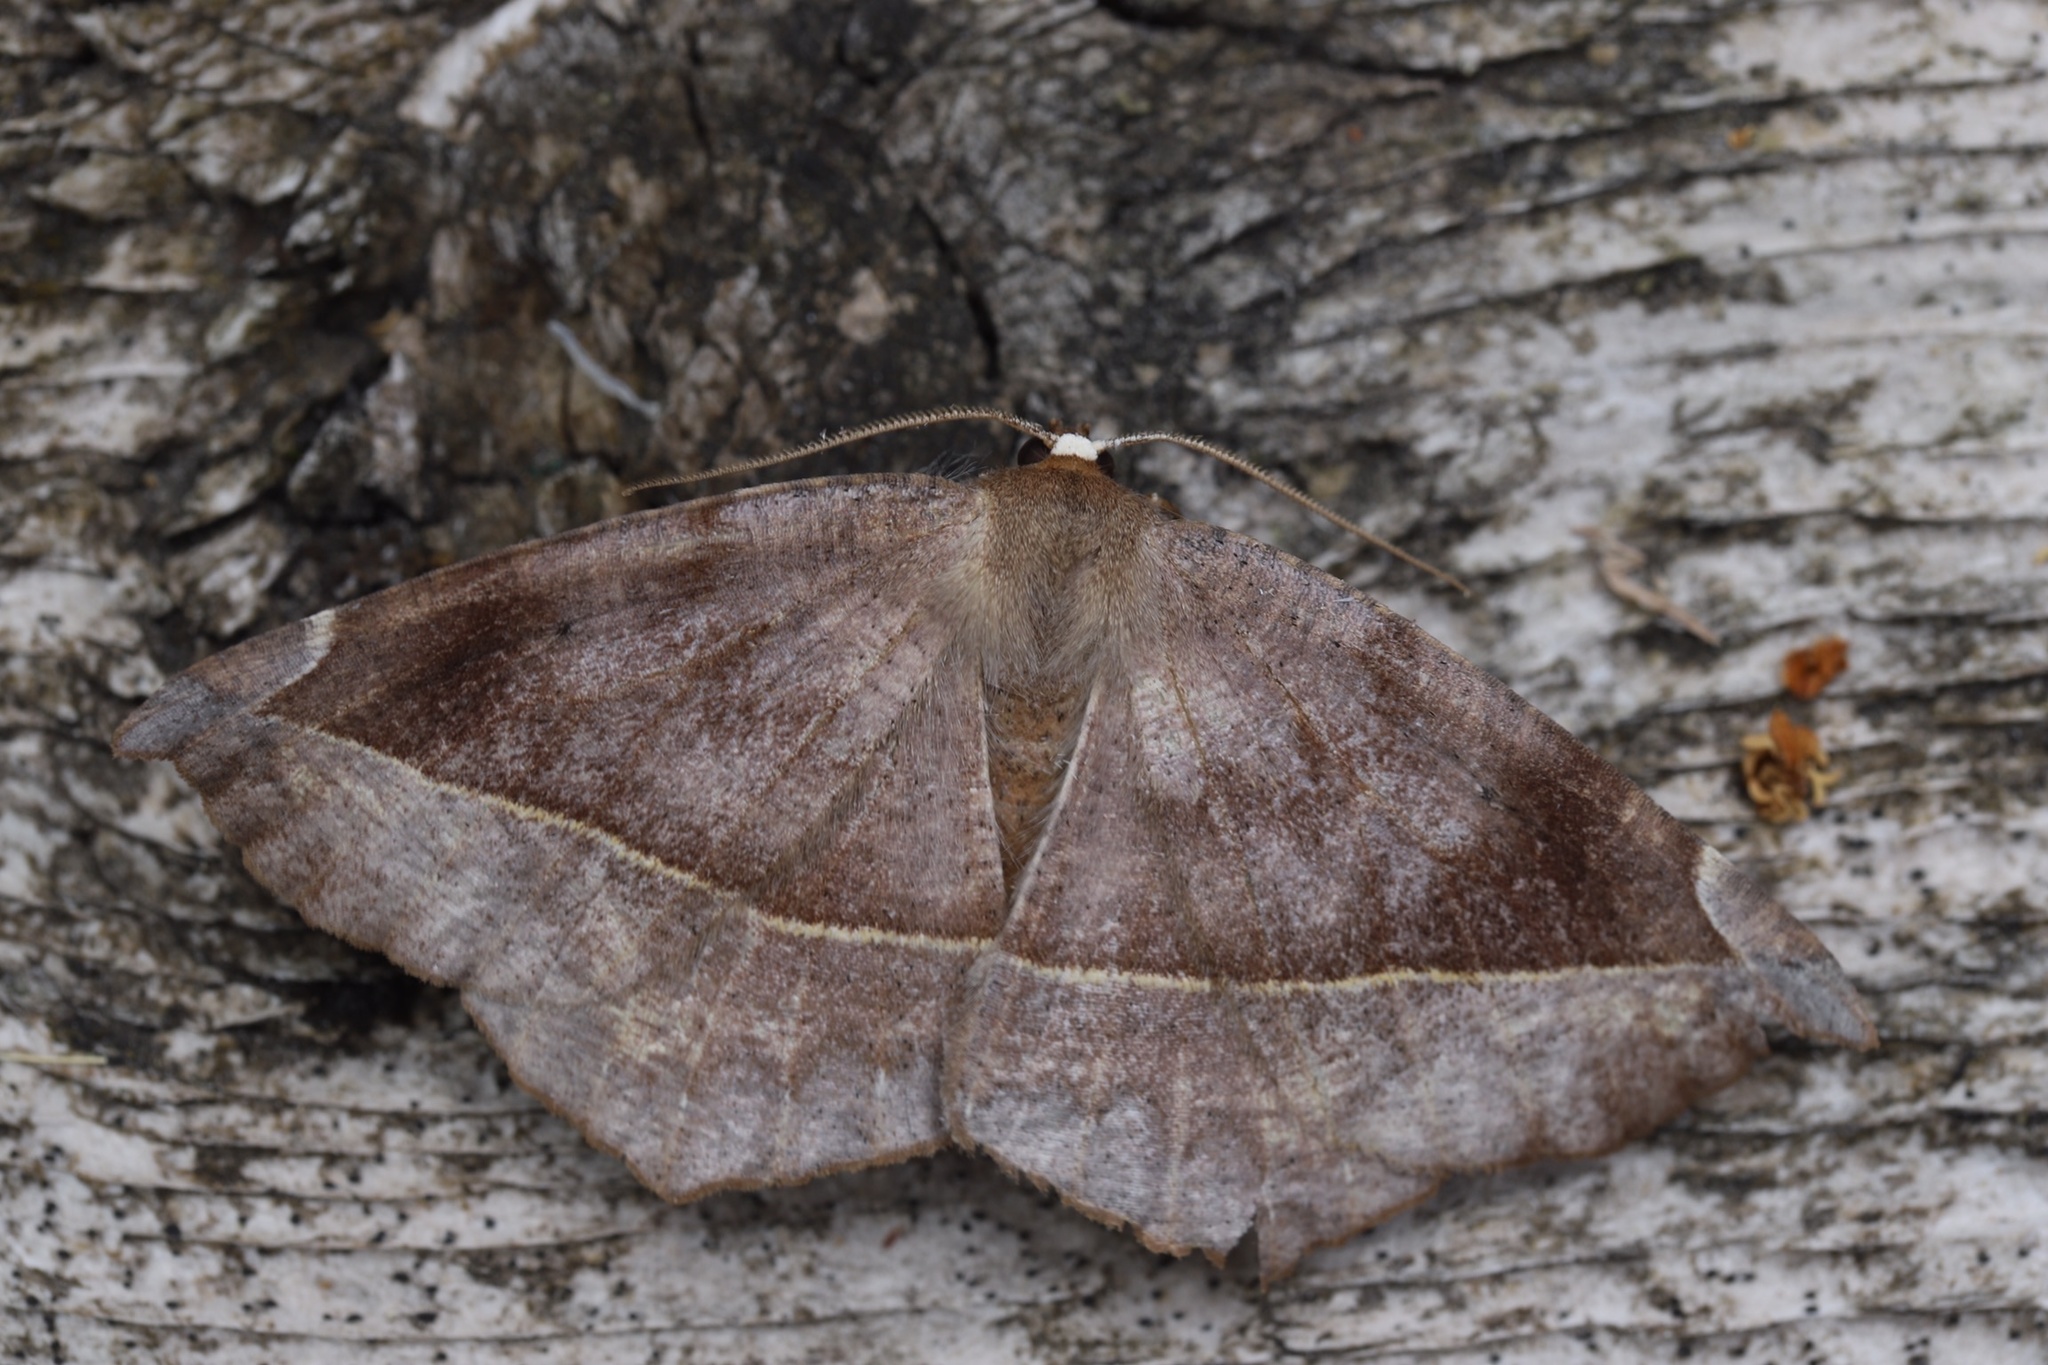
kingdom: Animalia
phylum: Arthropoda
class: Insecta
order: Lepidoptera
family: Geometridae
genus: Eutrapela
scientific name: Eutrapela clemataria
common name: Curved-toothed geometer
